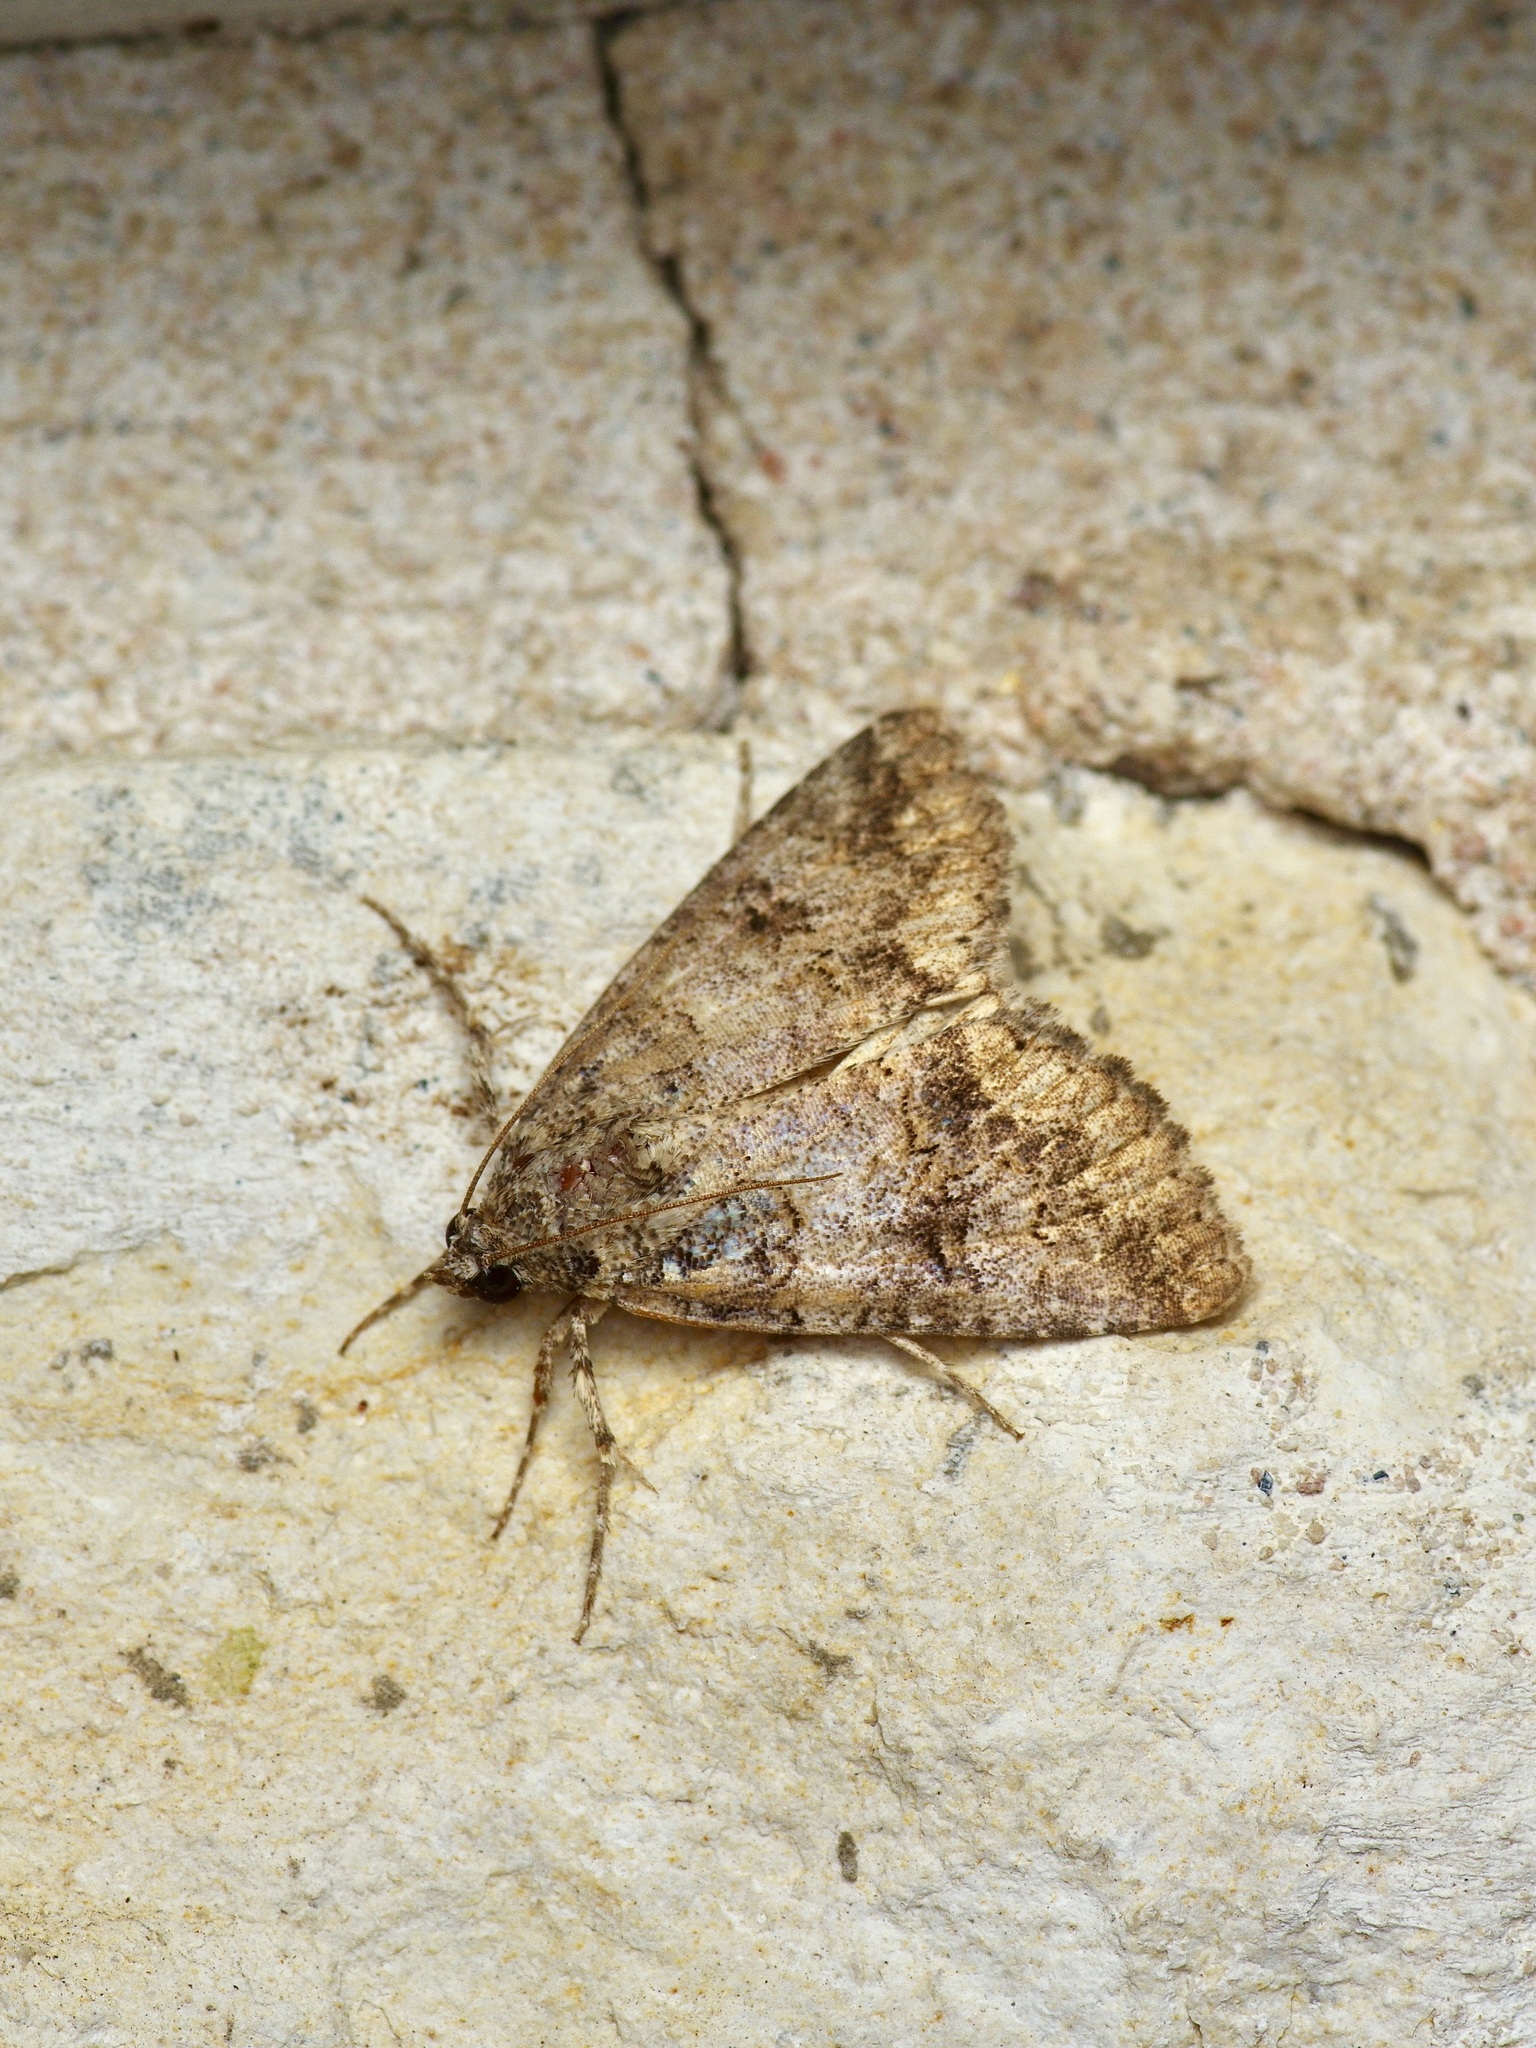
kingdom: Animalia
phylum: Arthropoda
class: Insecta
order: Lepidoptera
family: Erebidae
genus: Eubolina
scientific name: Eubolina impartialis
